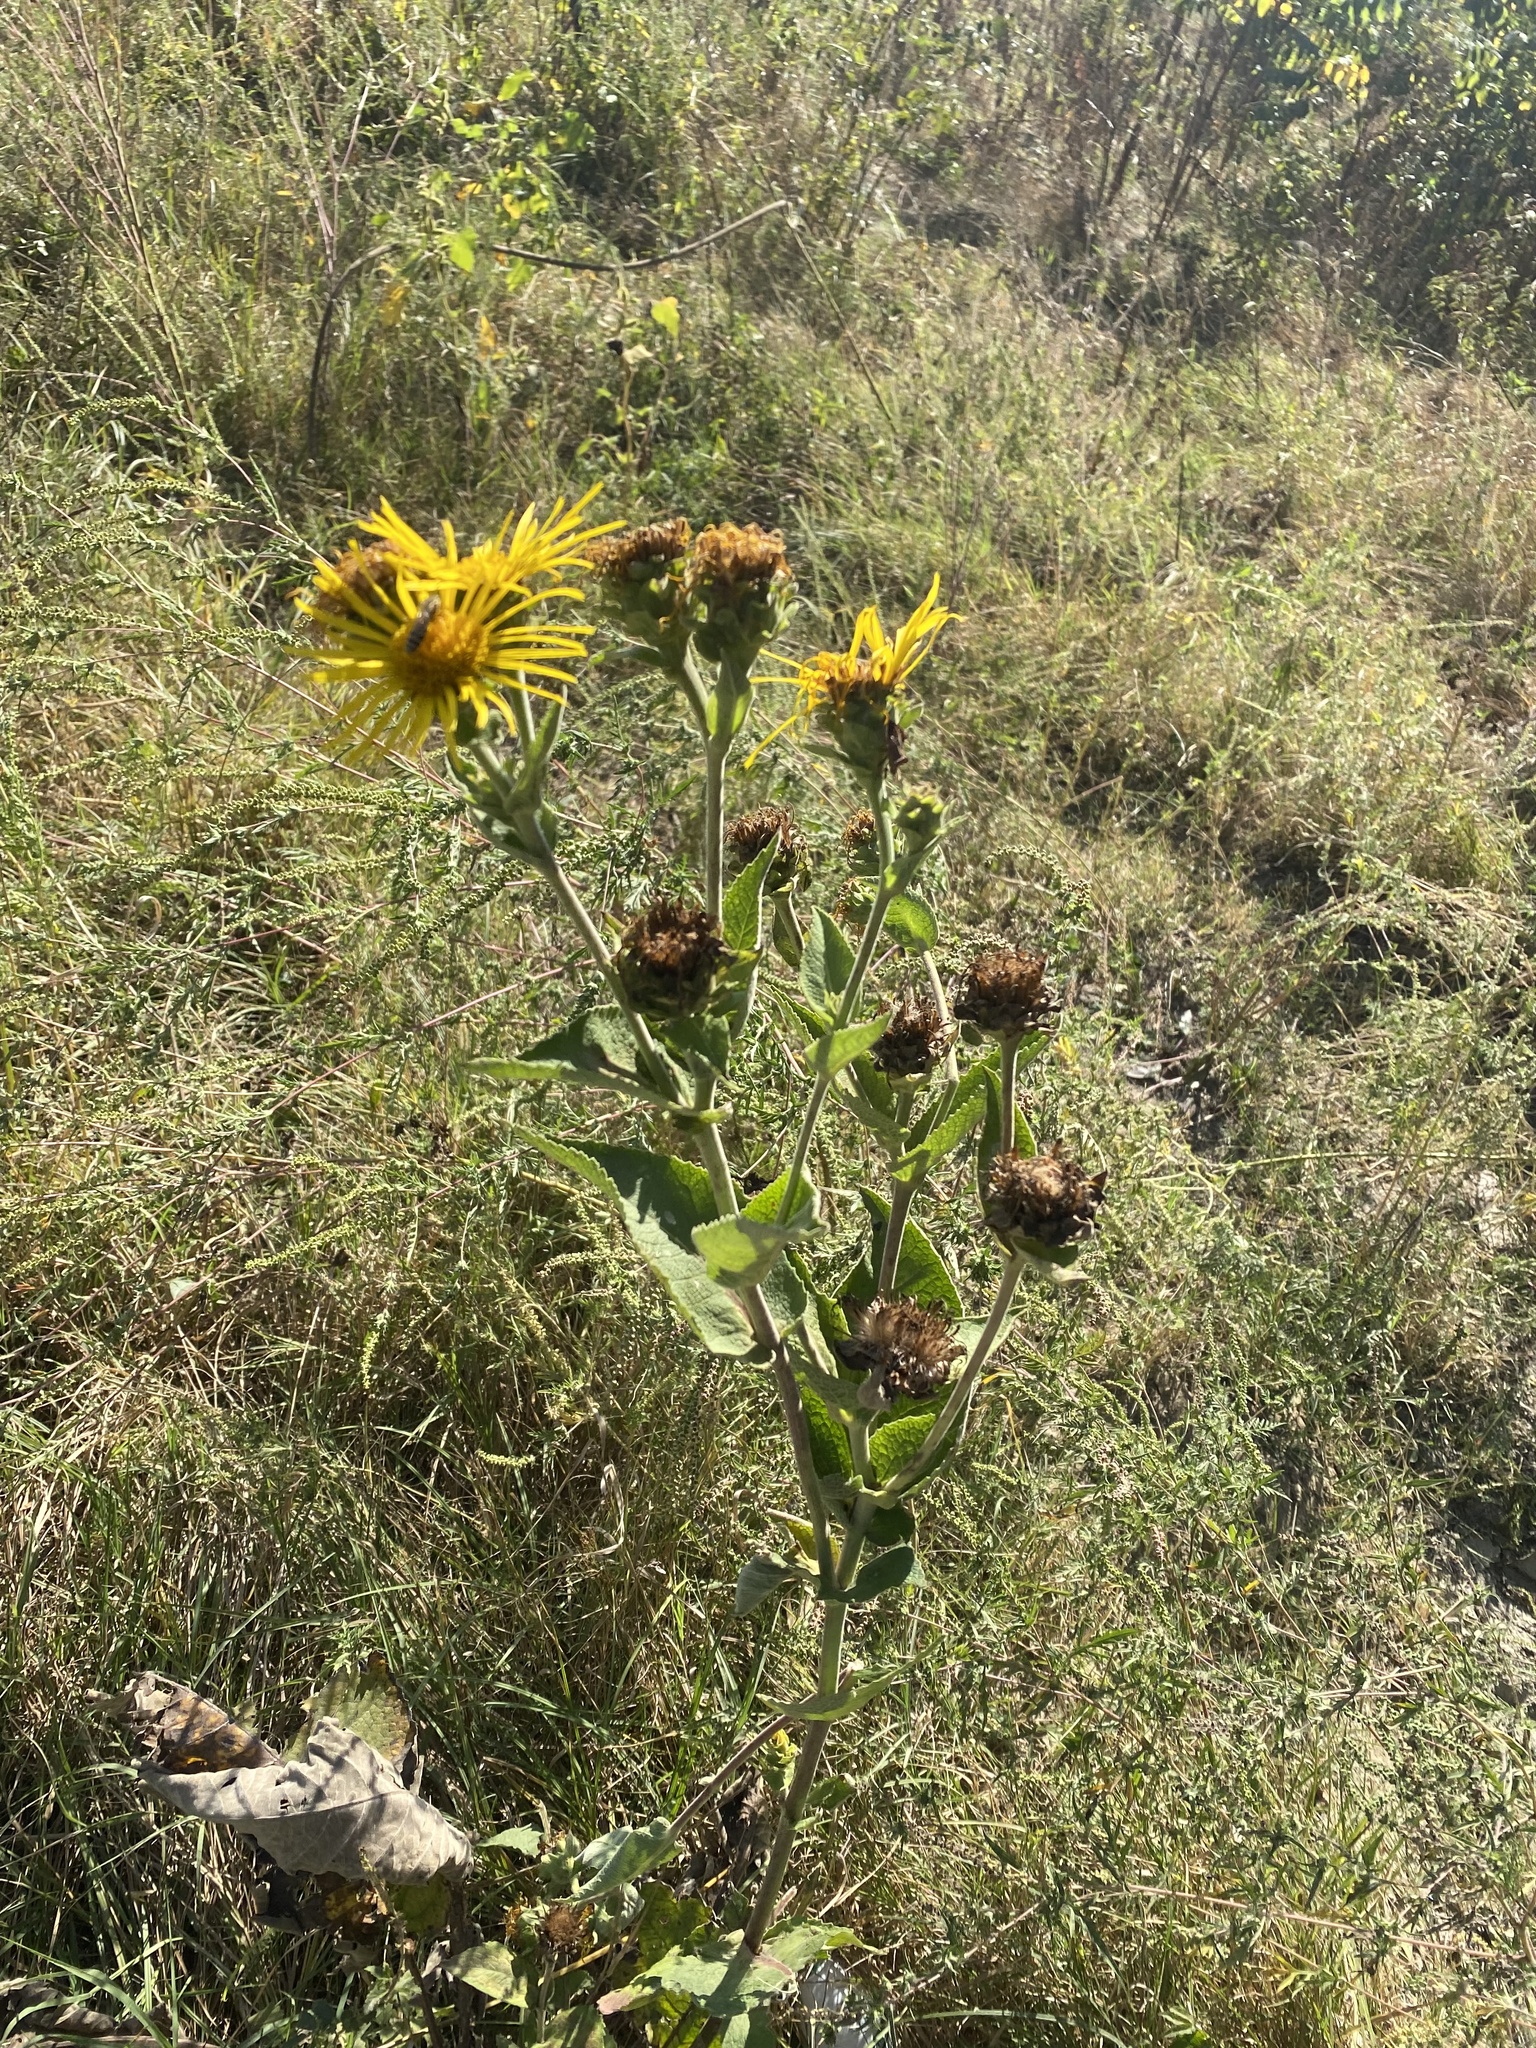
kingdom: Plantae
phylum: Tracheophyta
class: Magnoliopsida
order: Asterales
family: Asteraceae
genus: Inula
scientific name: Inula helenium
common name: Elecampane
